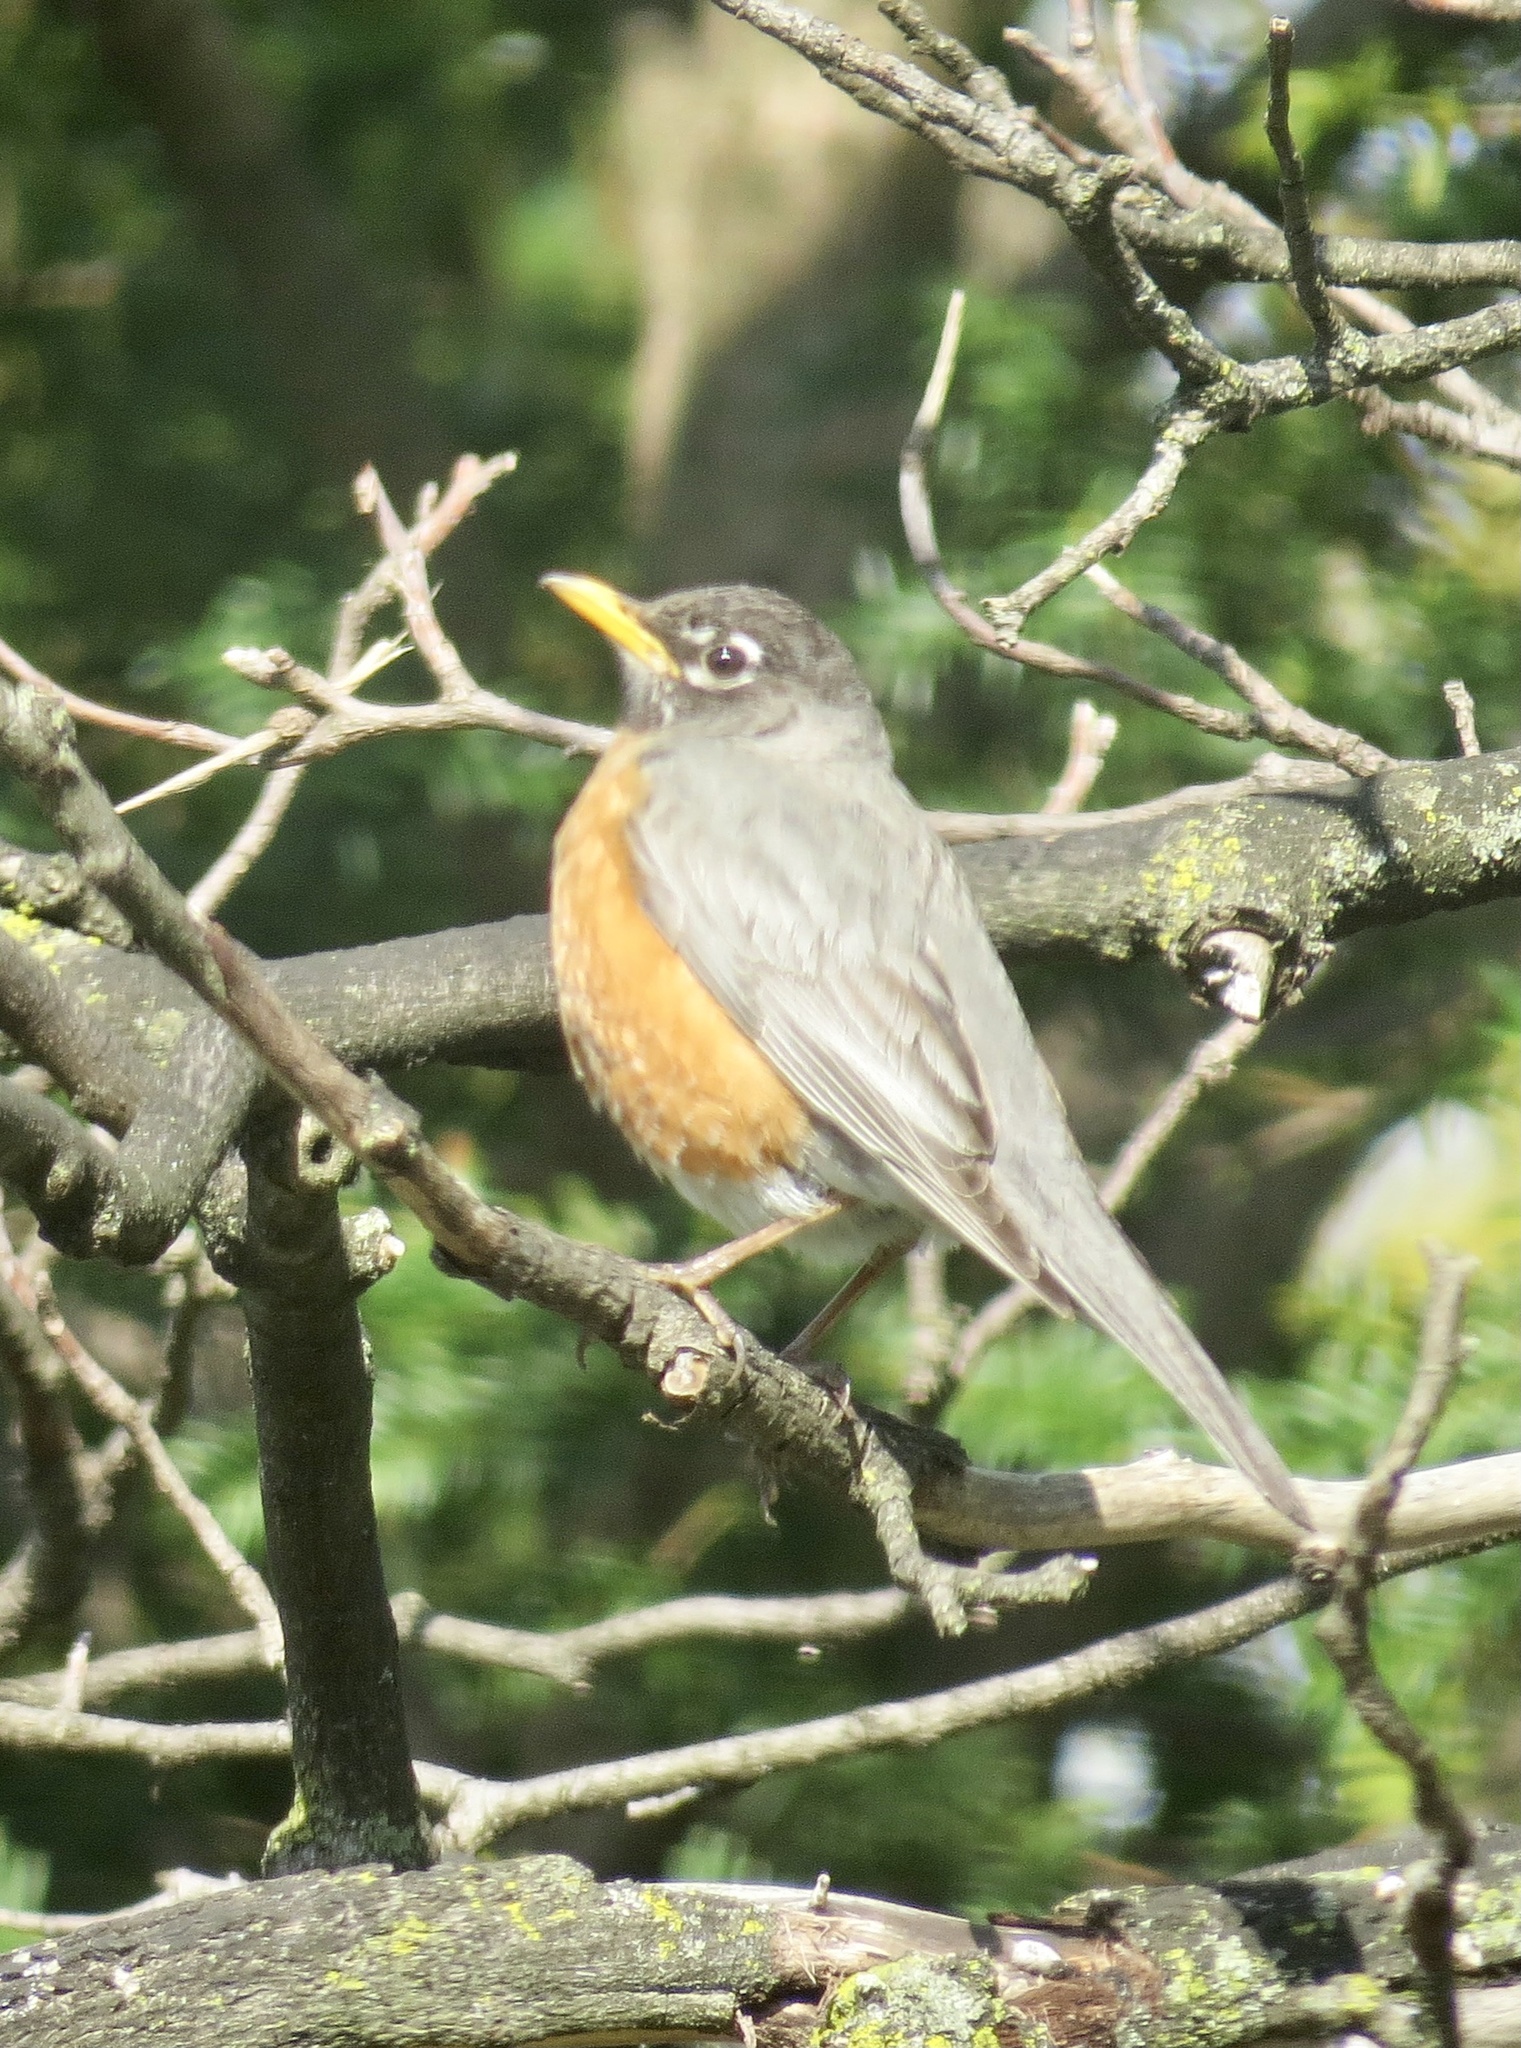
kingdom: Animalia
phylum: Chordata
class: Aves
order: Passeriformes
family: Turdidae
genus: Turdus
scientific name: Turdus migratorius
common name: American robin
